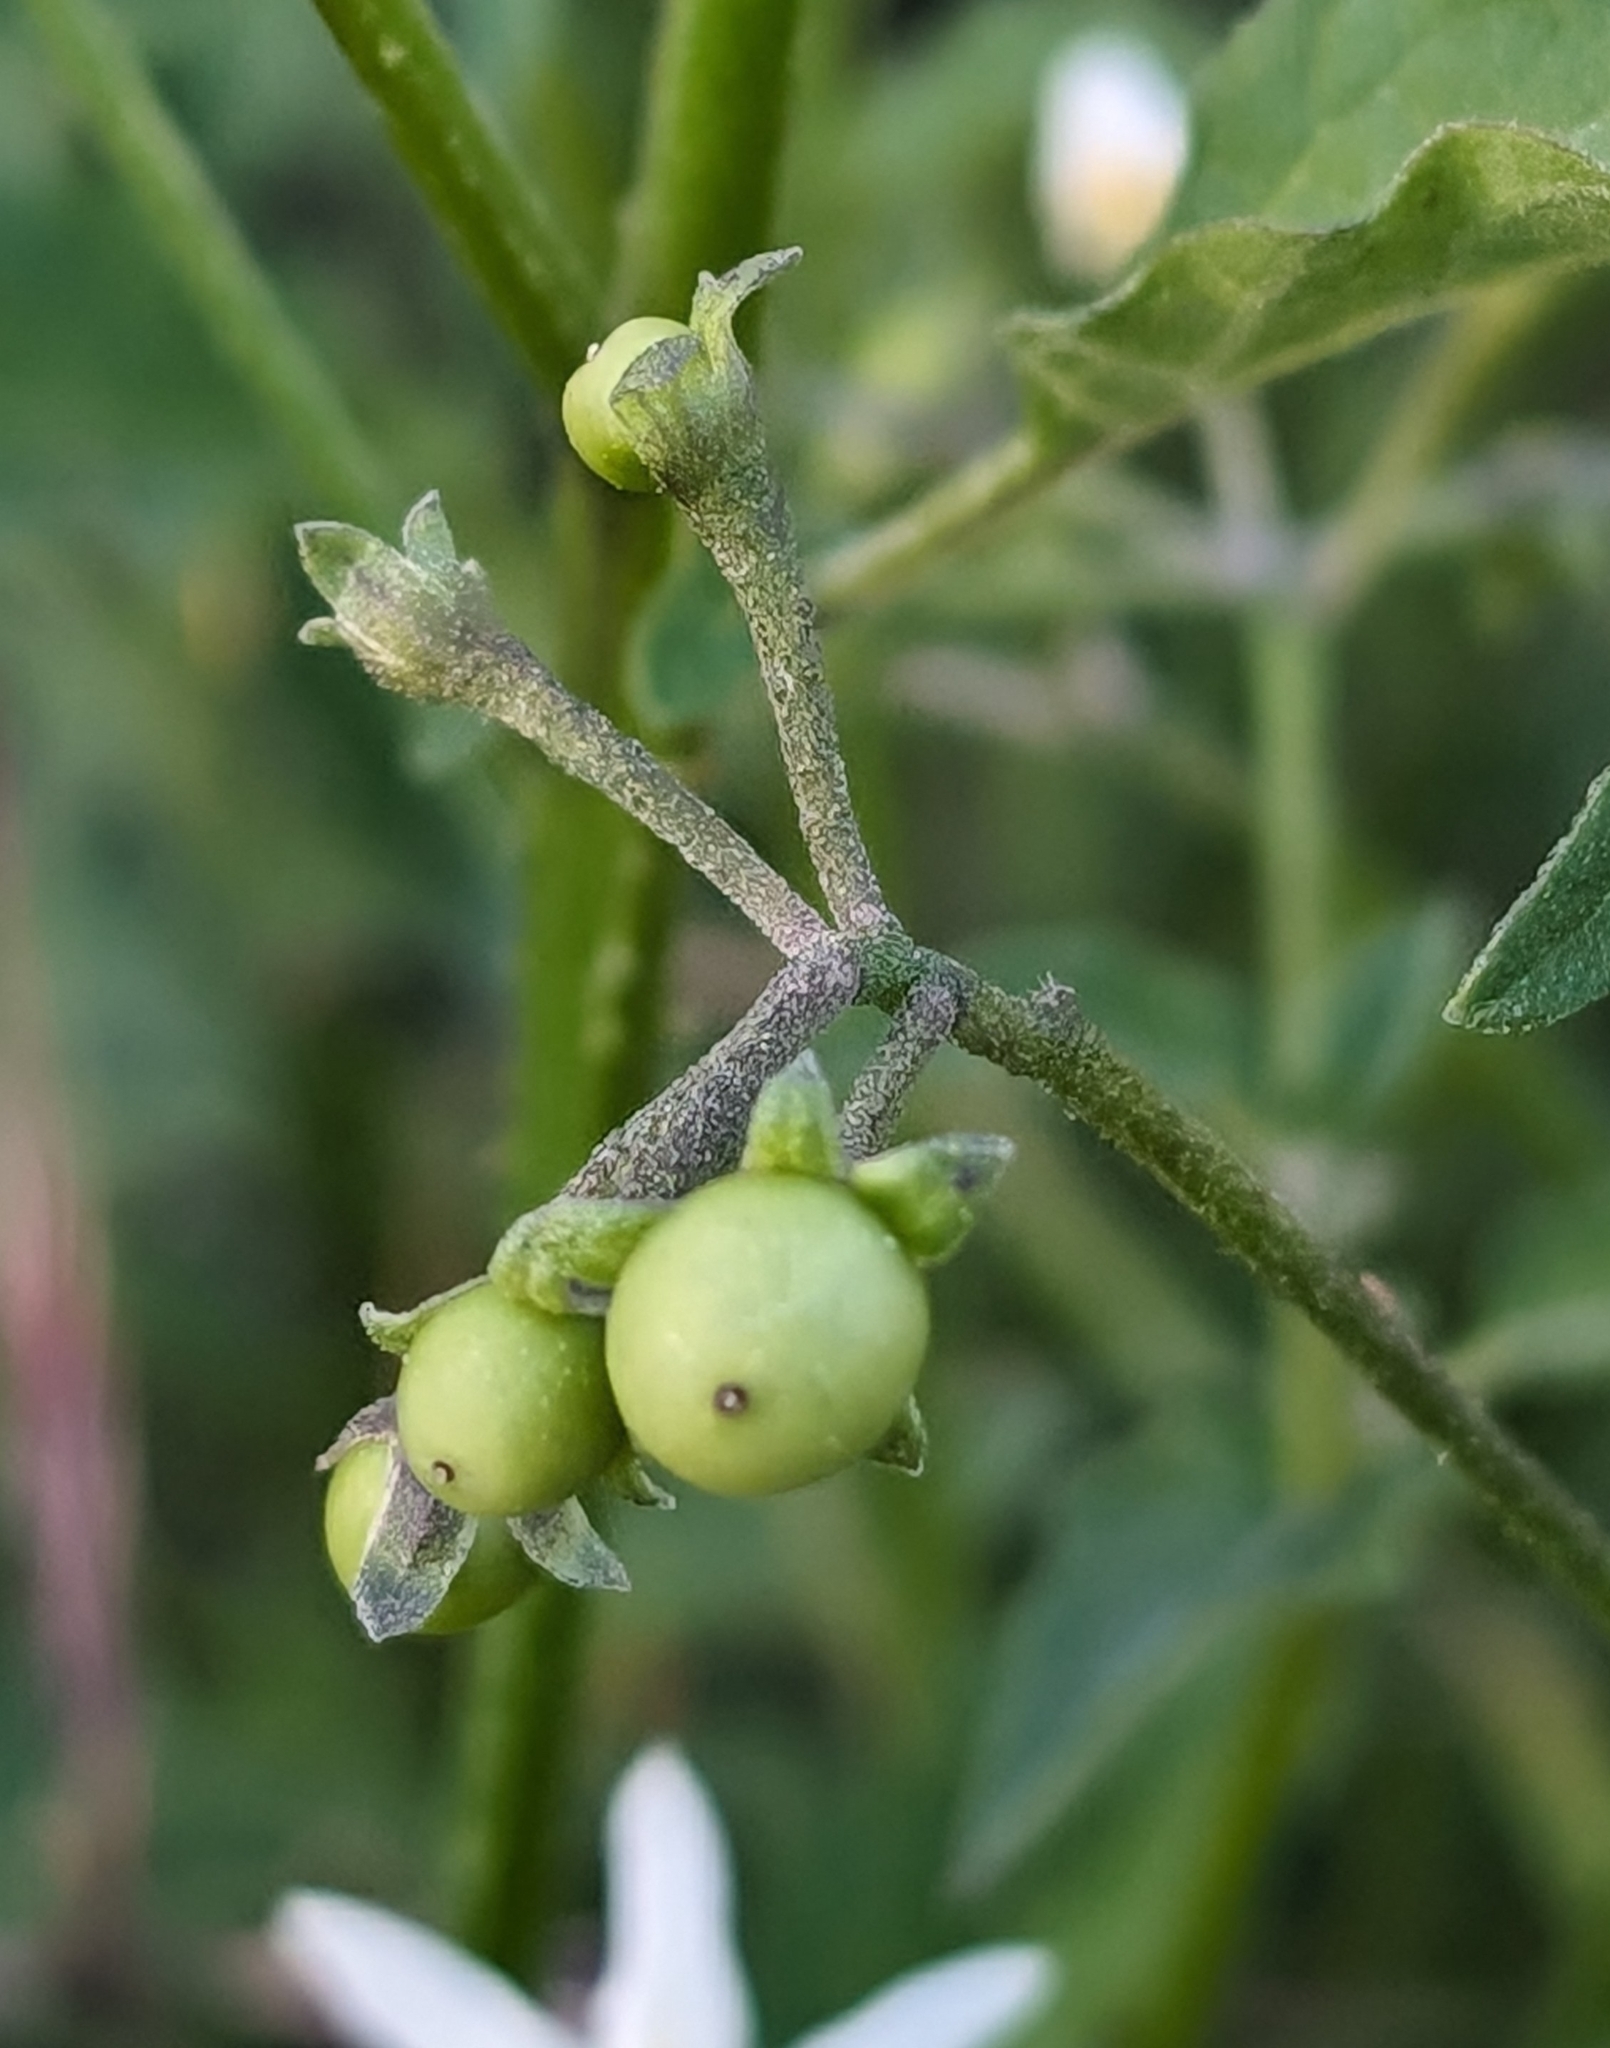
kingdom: Plantae
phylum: Tracheophyta
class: Magnoliopsida
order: Solanales
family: Solanaceae
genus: Solanum
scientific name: Solanum douglasii
